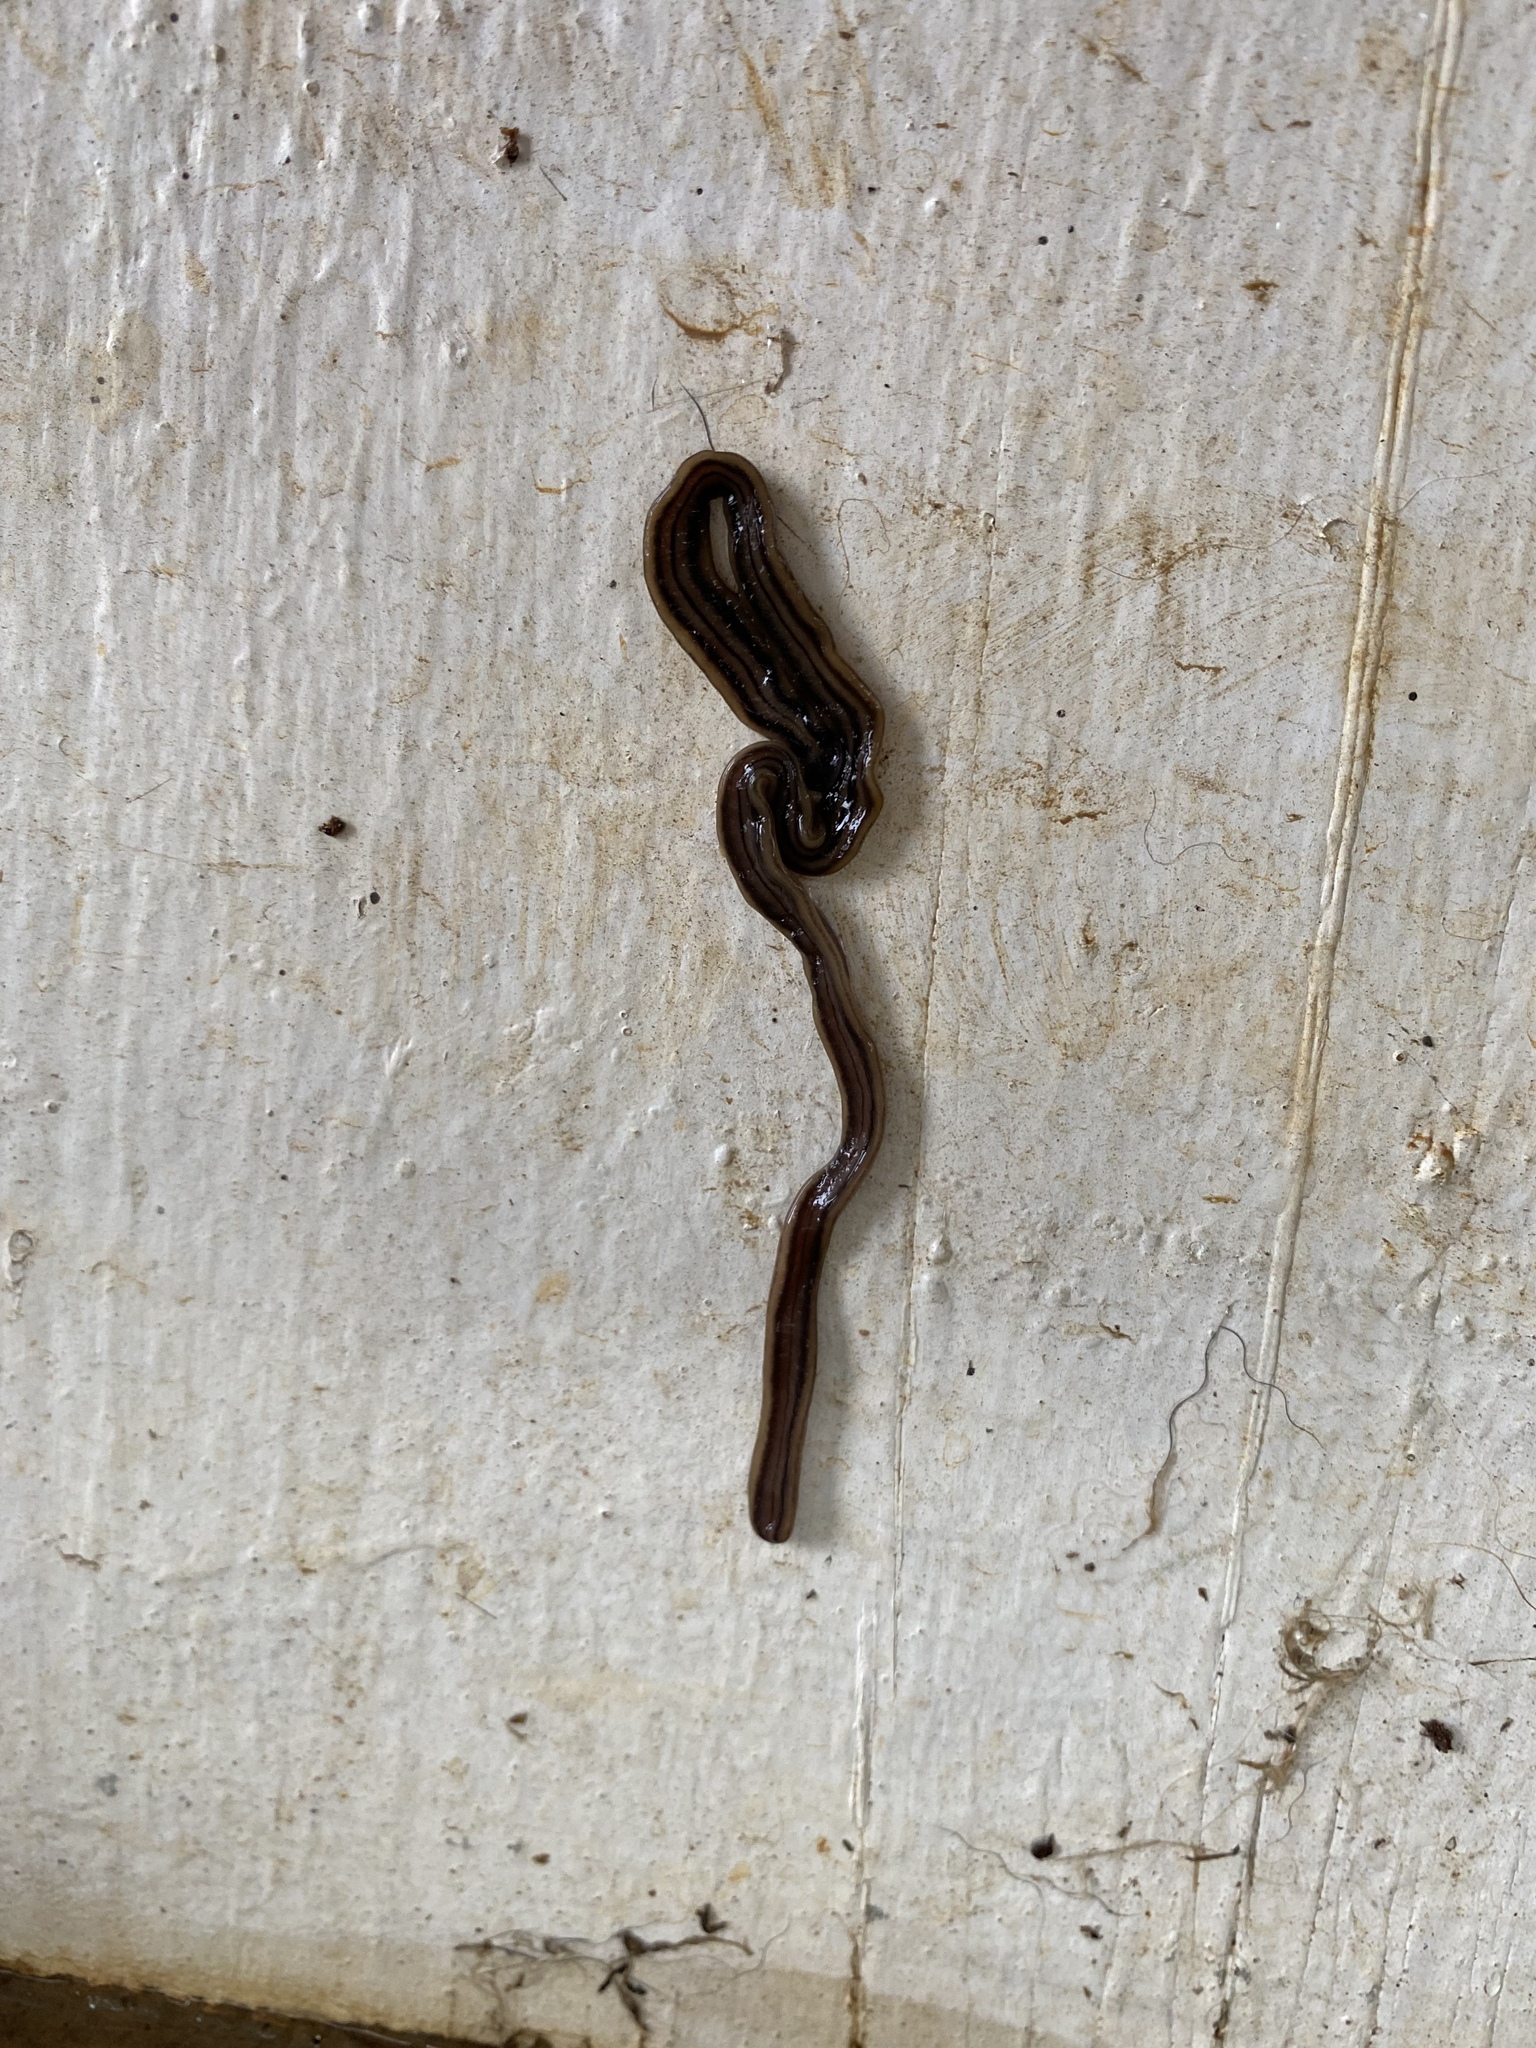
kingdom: Animalia
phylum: Platyhelminthes
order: Tricladida
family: Geoplanidae
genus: Bipalium
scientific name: Bipalium kewense
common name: Hammerhead flatworm
